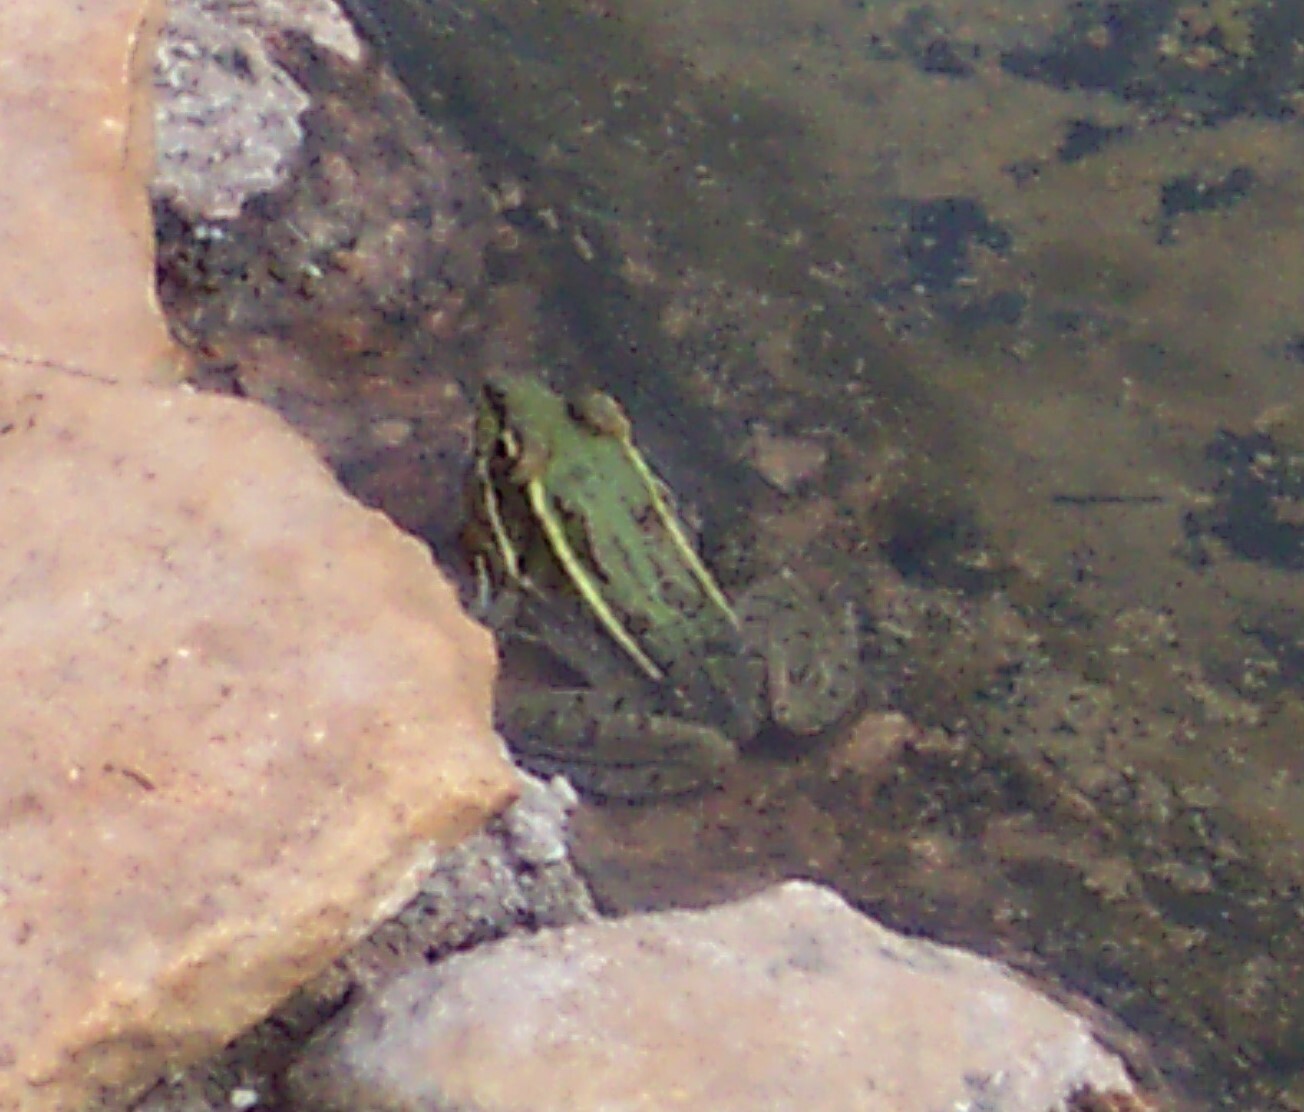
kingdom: Animalia
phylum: Chordata
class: Amphibia
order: Anura
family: Ranidae
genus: Lithobates
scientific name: Lithobates berlandieri
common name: Rio grande leopard frog
